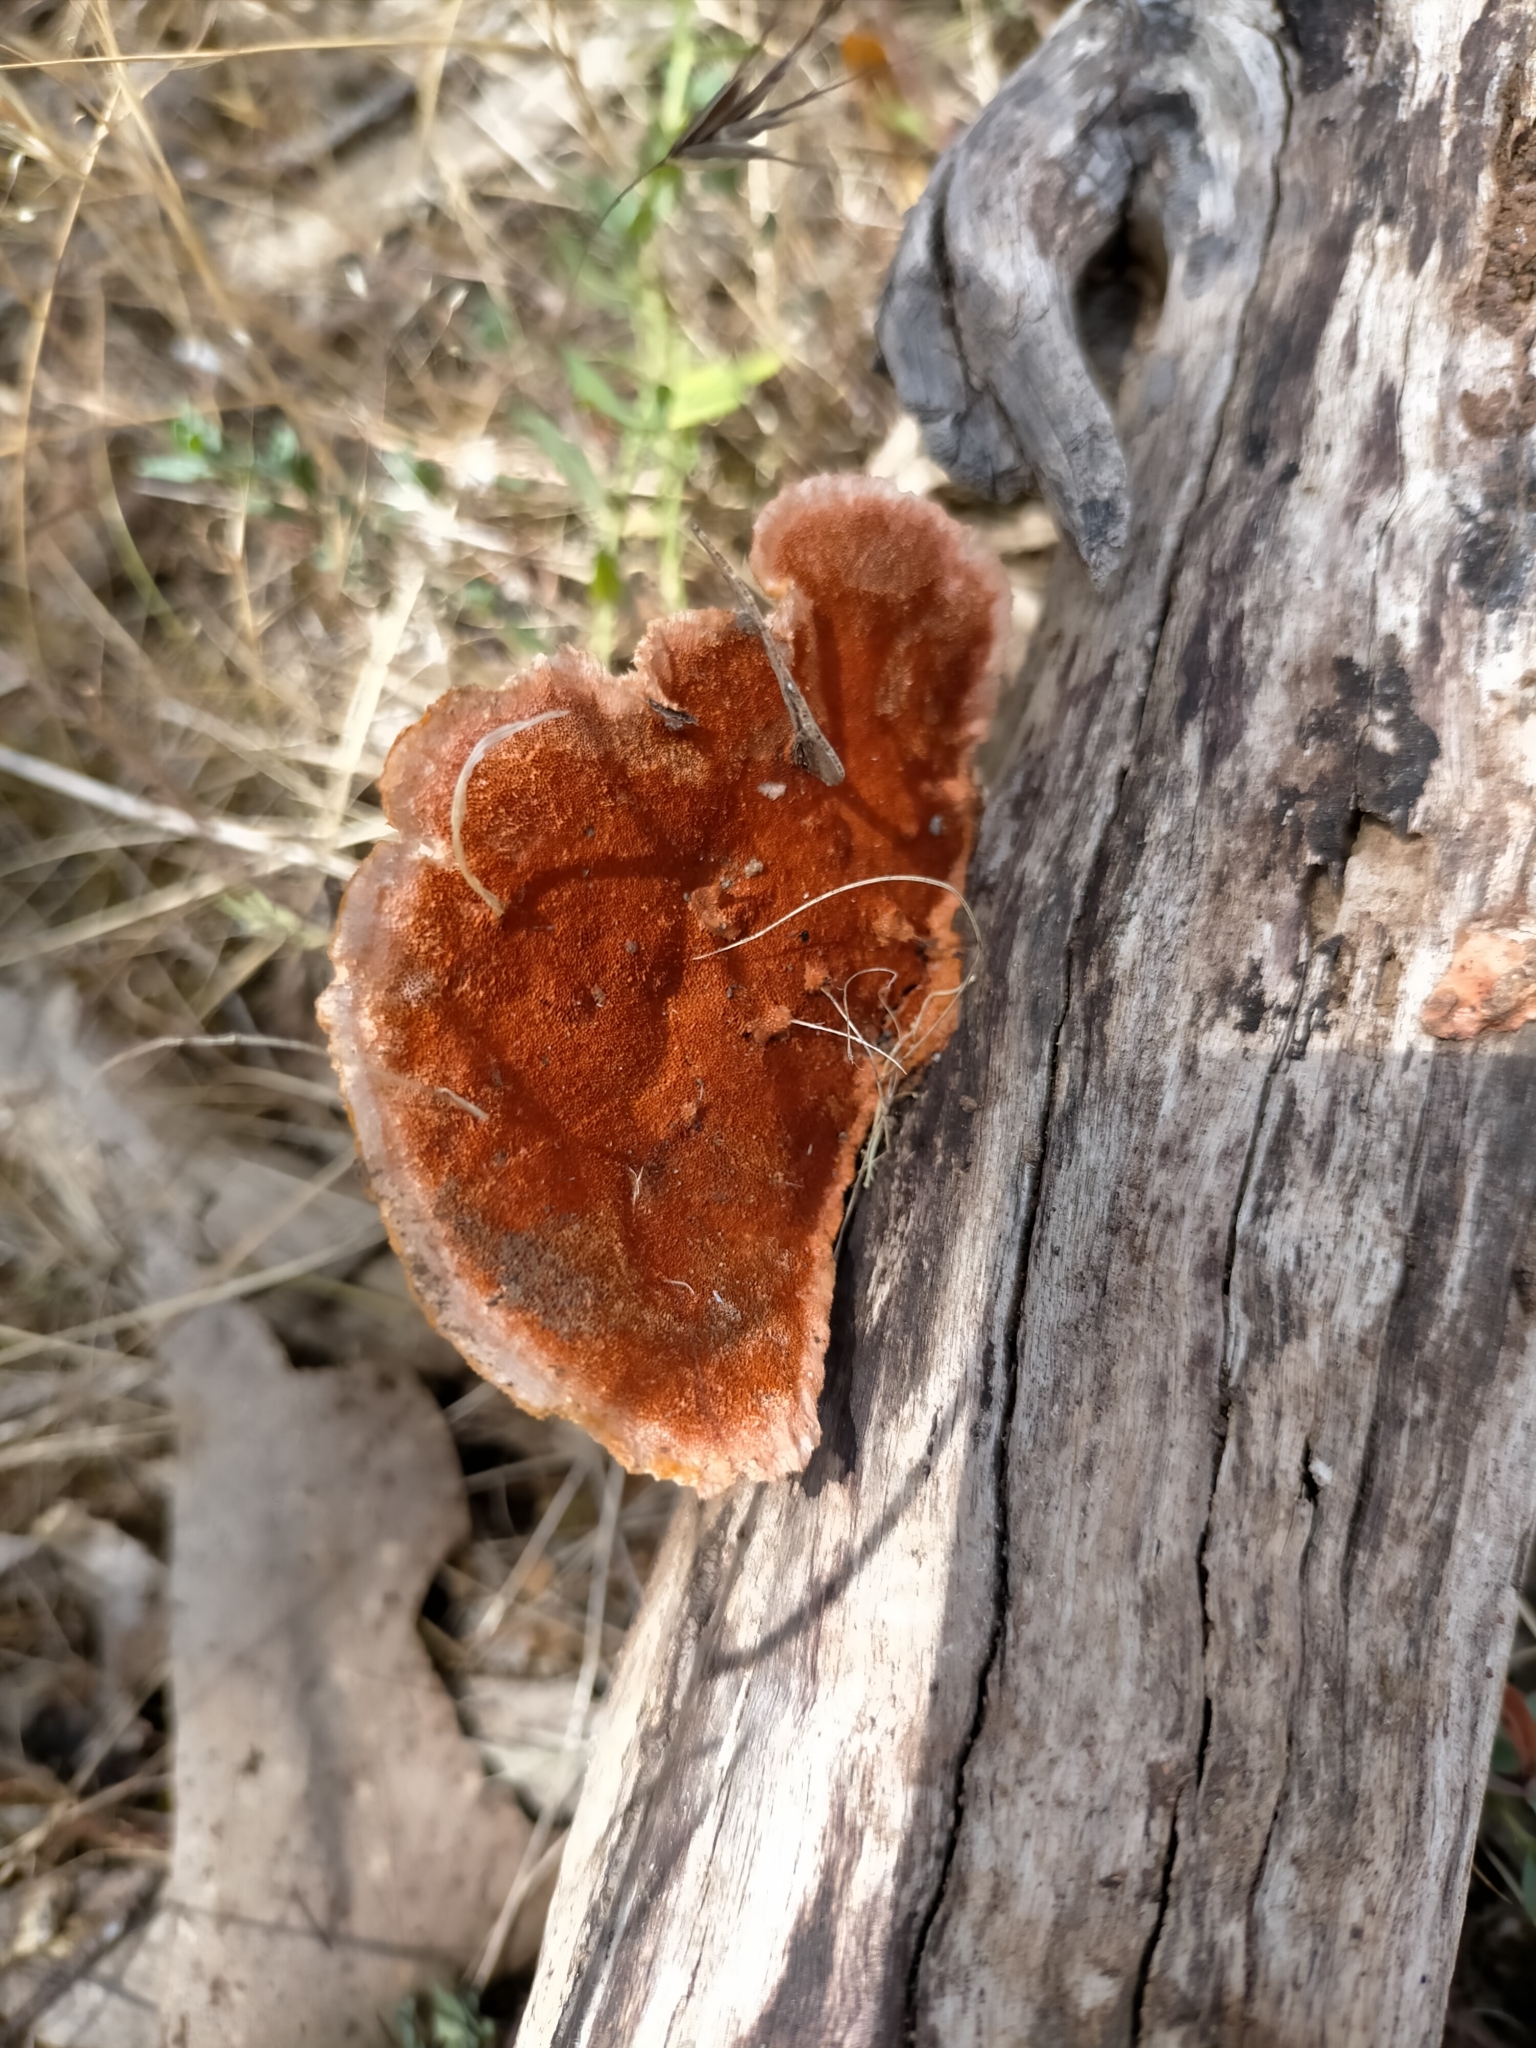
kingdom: Fungi
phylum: Basidiomycota
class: Agaricomycetes
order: Polyporales
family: Polyporaceae
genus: Trametes
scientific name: Trametes coccinea
